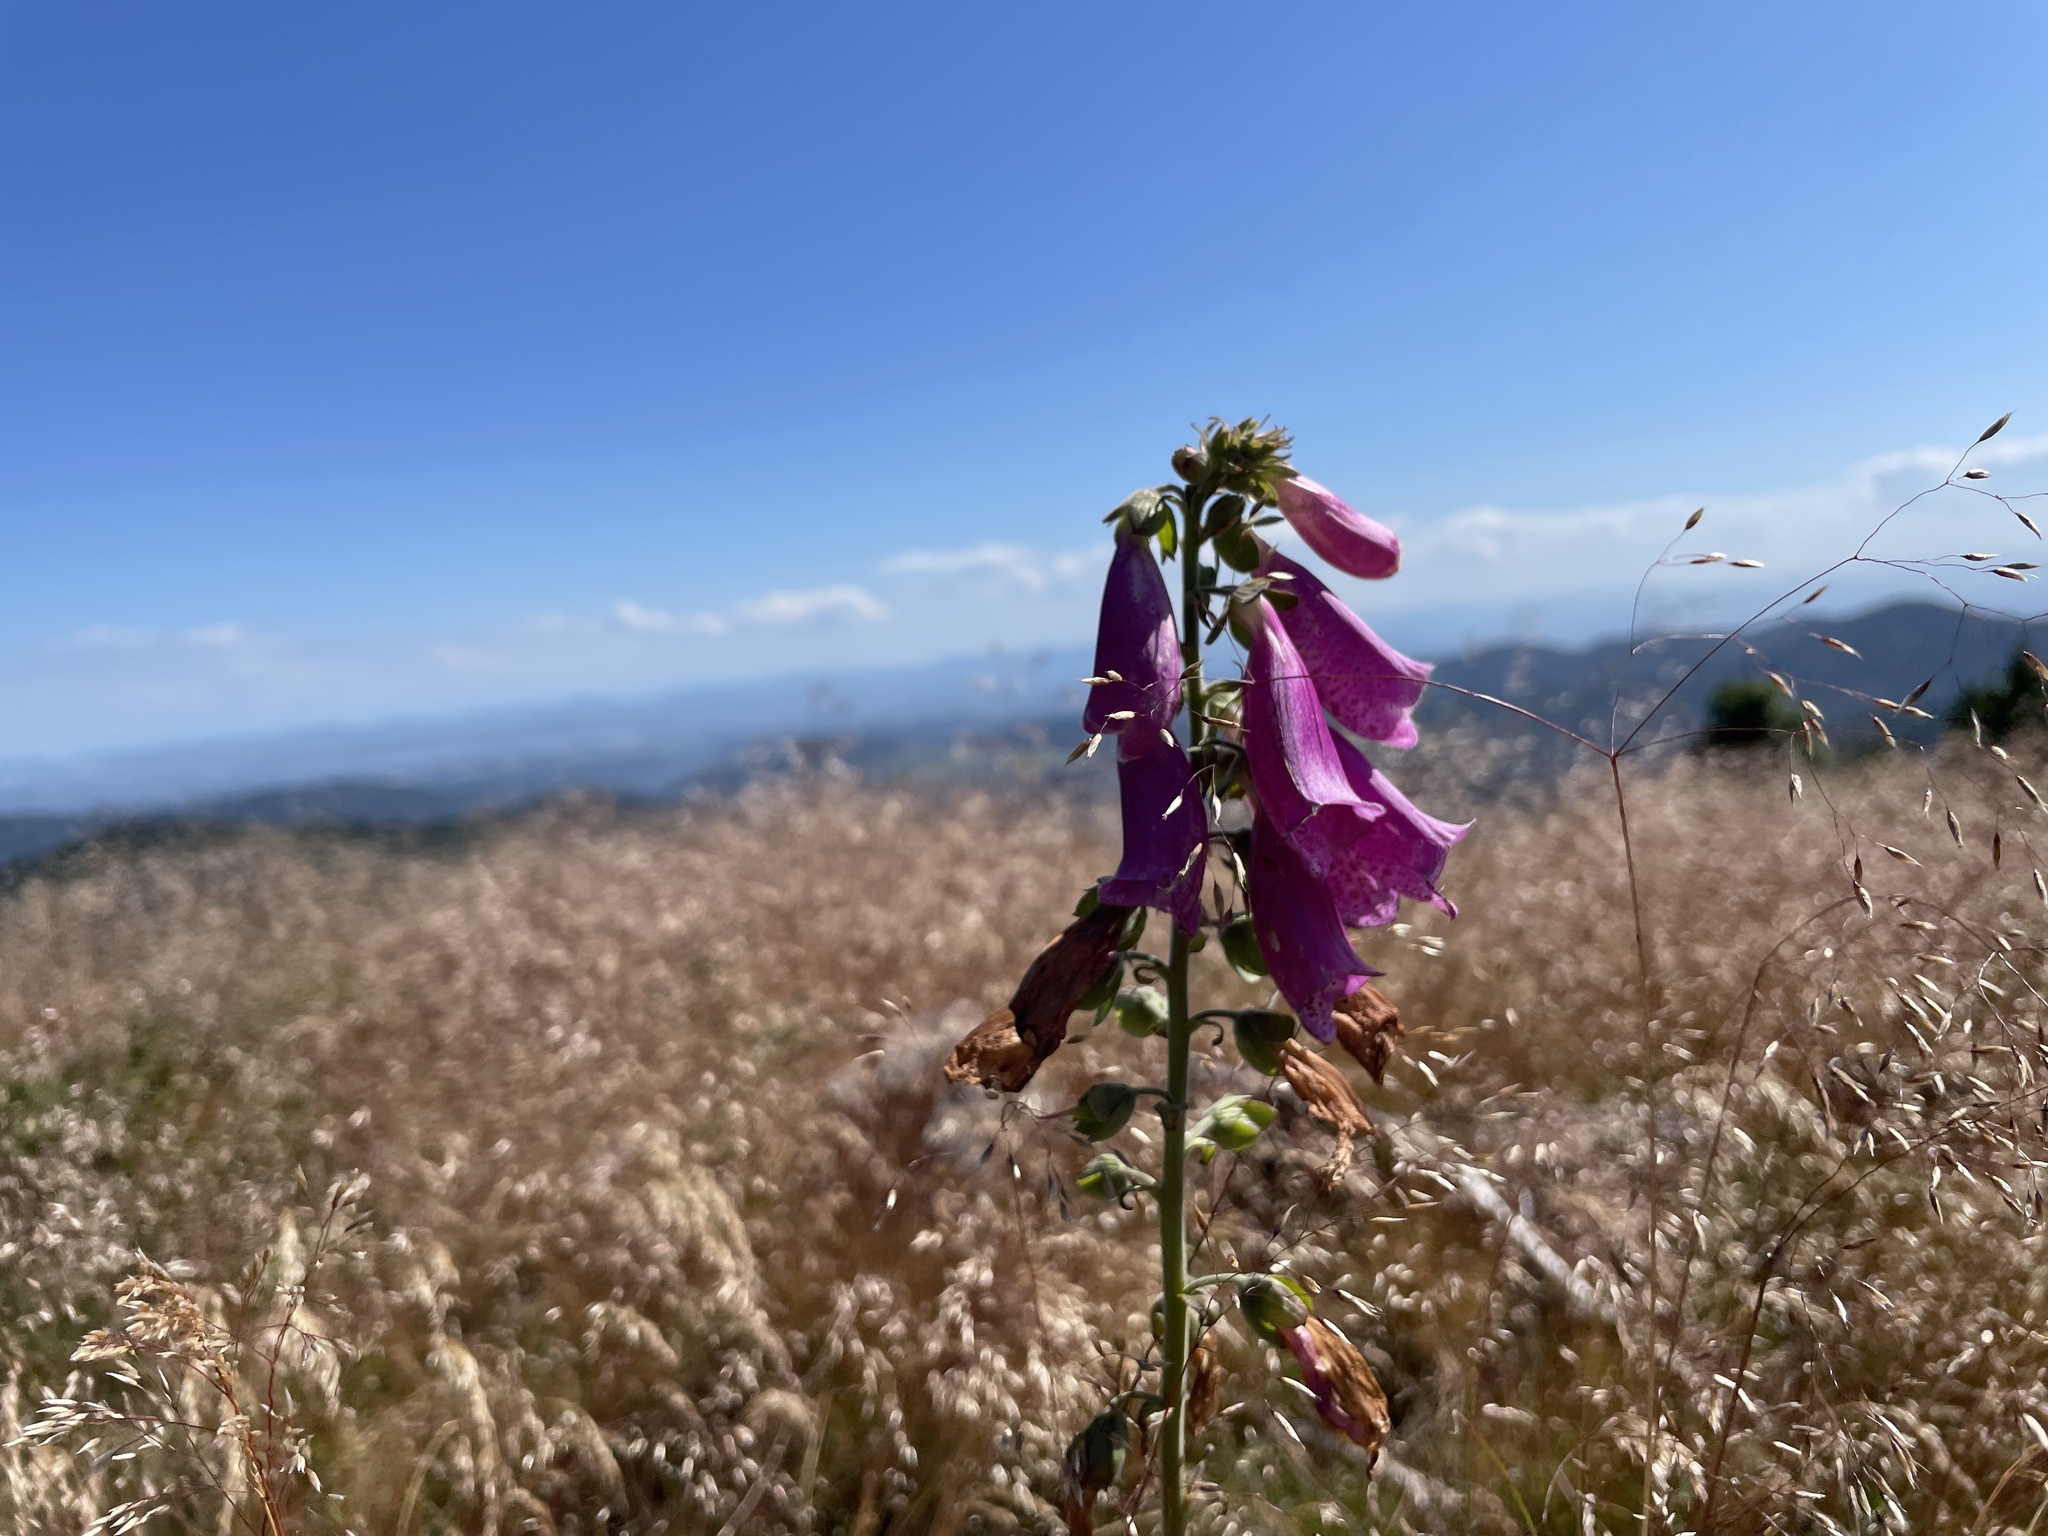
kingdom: Plantae
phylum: Tracheophyta
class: Magnoliopsida
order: Lamiales
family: Plantaginaceae
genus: Digitalis
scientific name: Digitalis purpurea
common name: Foxglove
